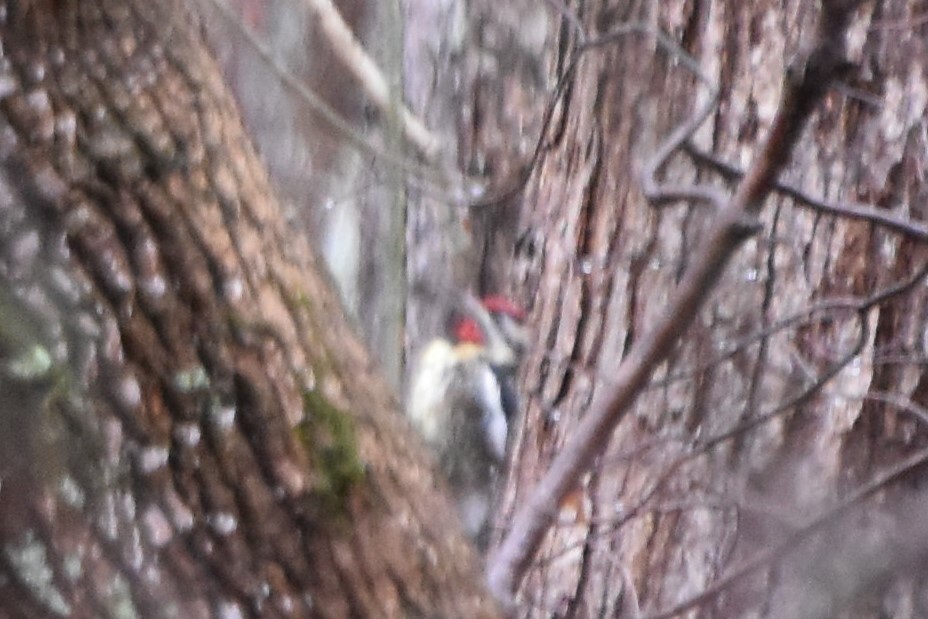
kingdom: Animalia
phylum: Chordata
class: Aves
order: Piciformes
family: Picidae
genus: Sphyrapicus
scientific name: Sphyrapicus varius
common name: Yellow-bellied sapsucker
